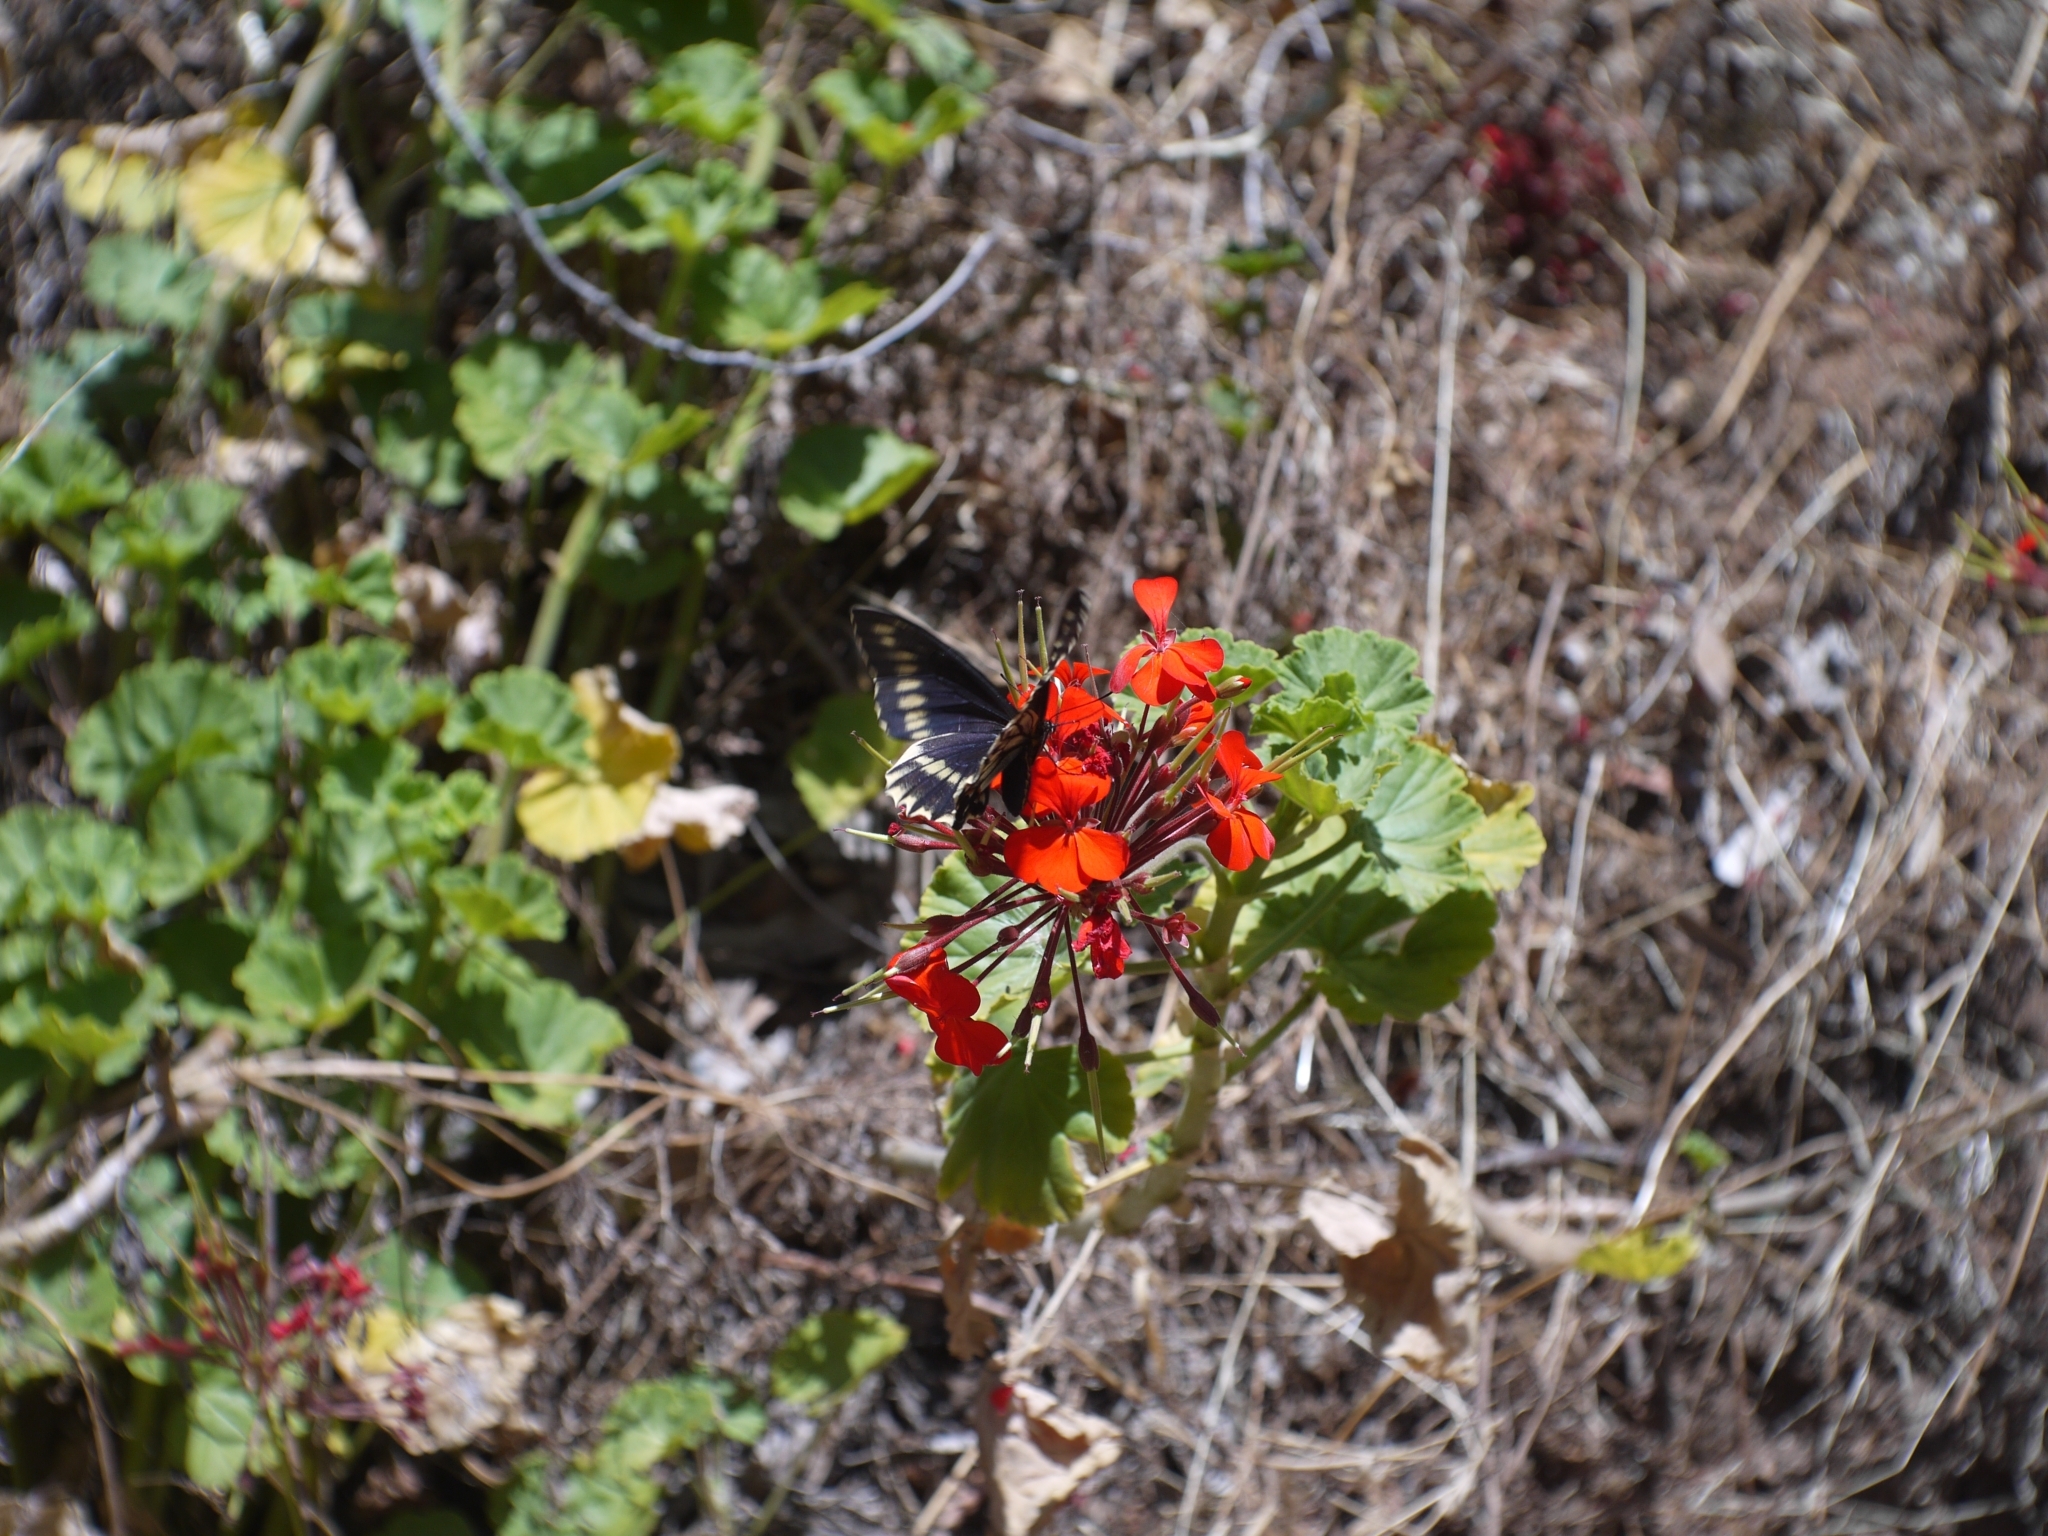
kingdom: Animalia
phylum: Arthropoda
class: Insecta
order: Lepidoptera
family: Papilionidae
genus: Battus
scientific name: Battus polydamas
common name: Polydamas swallowtail
